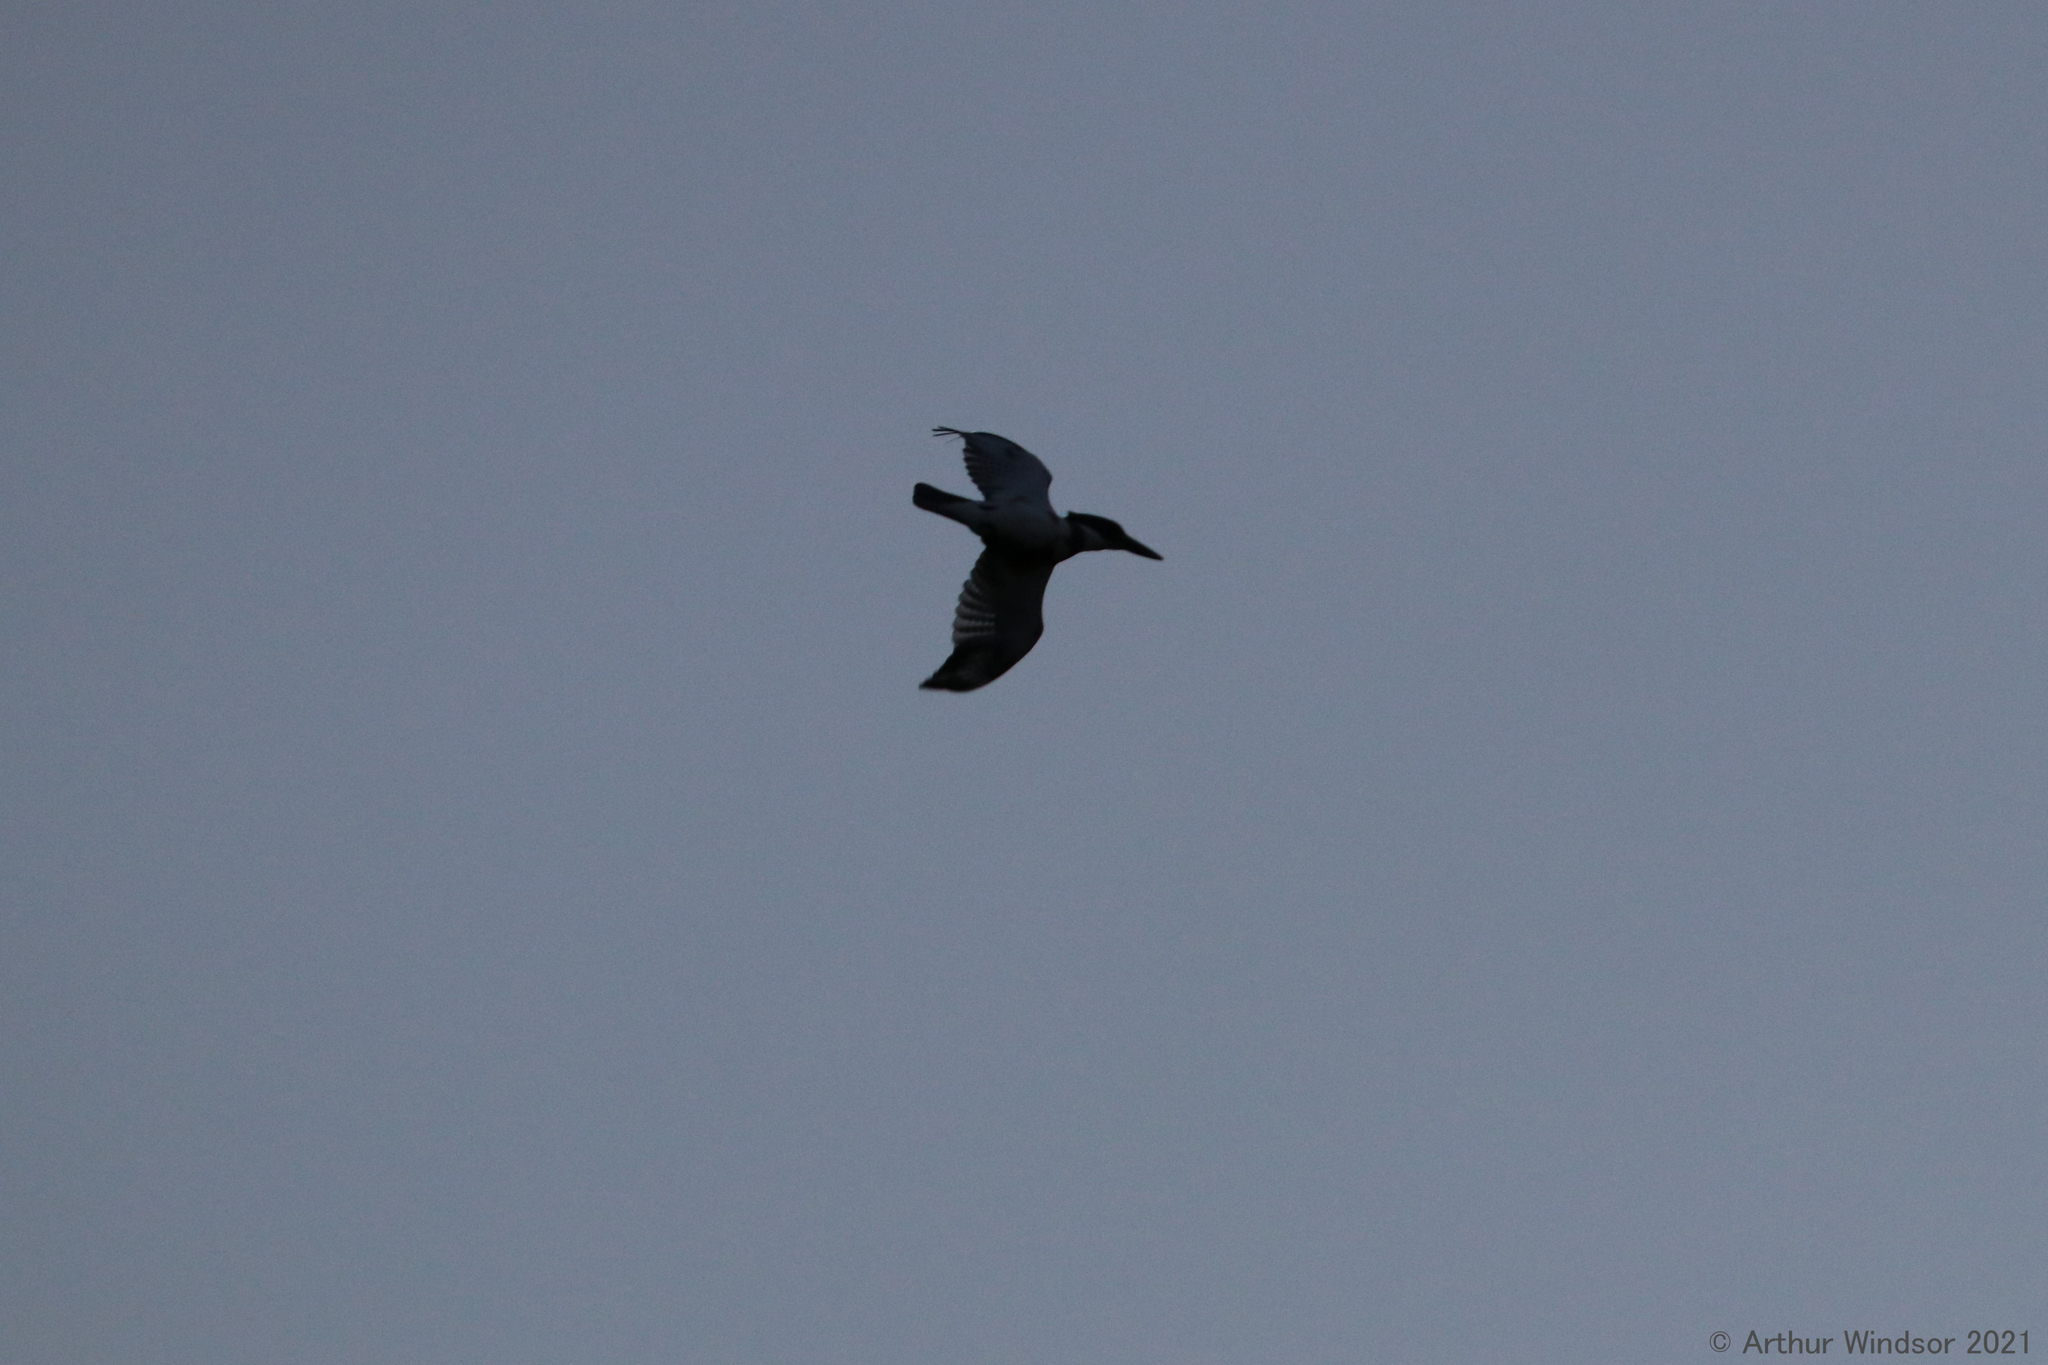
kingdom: Animalia
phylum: Chordata
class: Aves
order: Coraciiformes
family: Alcedinidae
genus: Megaceryle
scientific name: Megaceryle alcyon
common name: Belted kingfisher
